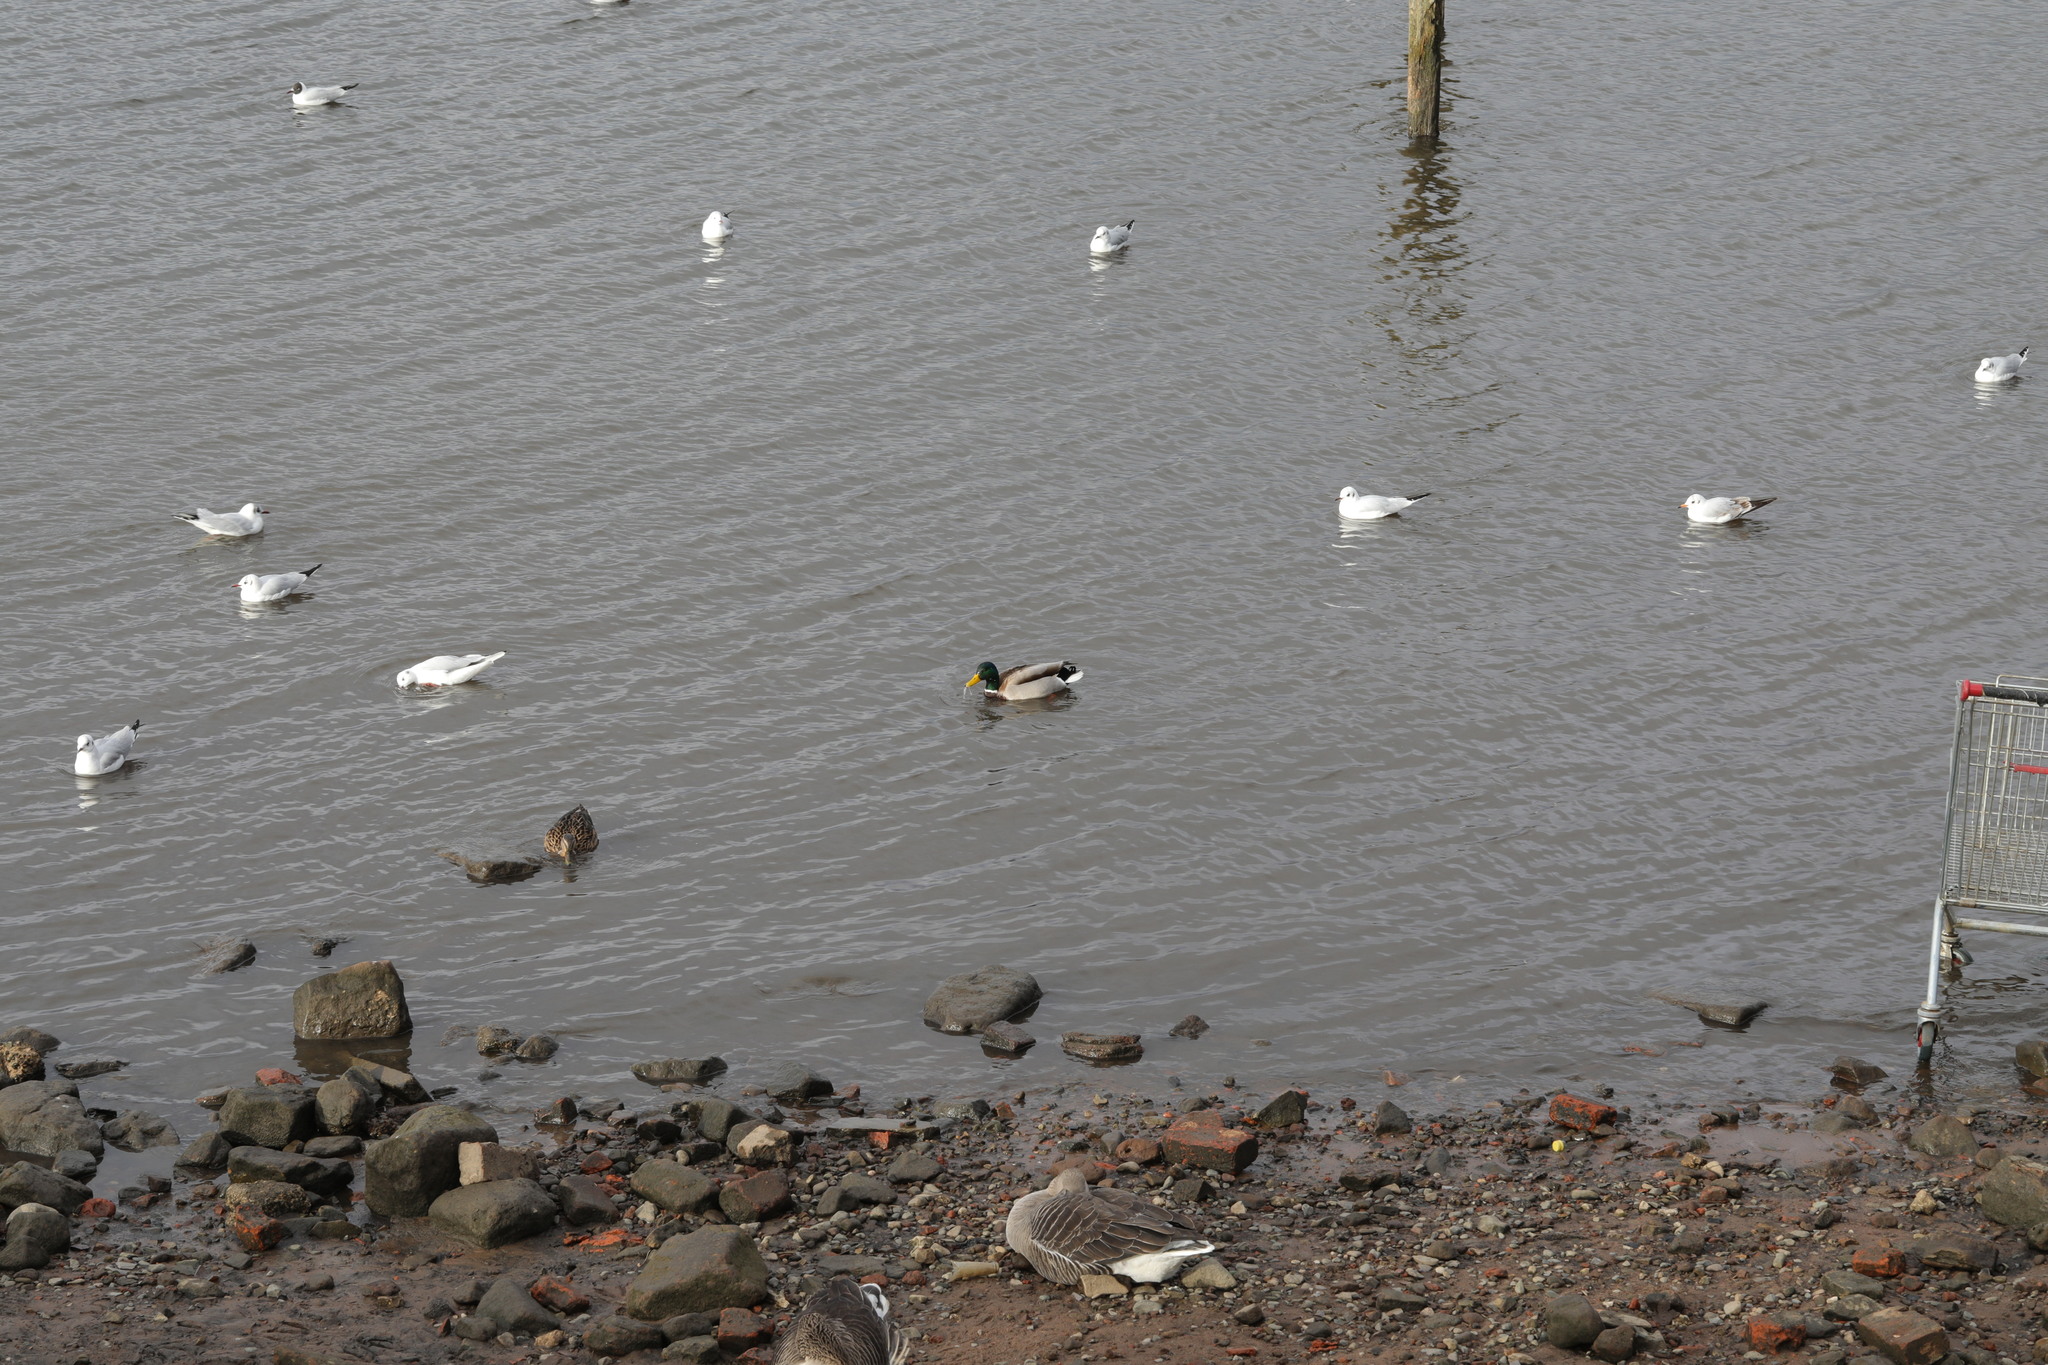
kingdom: Animalia
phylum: Chordata
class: Aves
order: Anseriformes
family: Anatidae
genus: Anas
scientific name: Anas platyrhynchos
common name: Mallard
